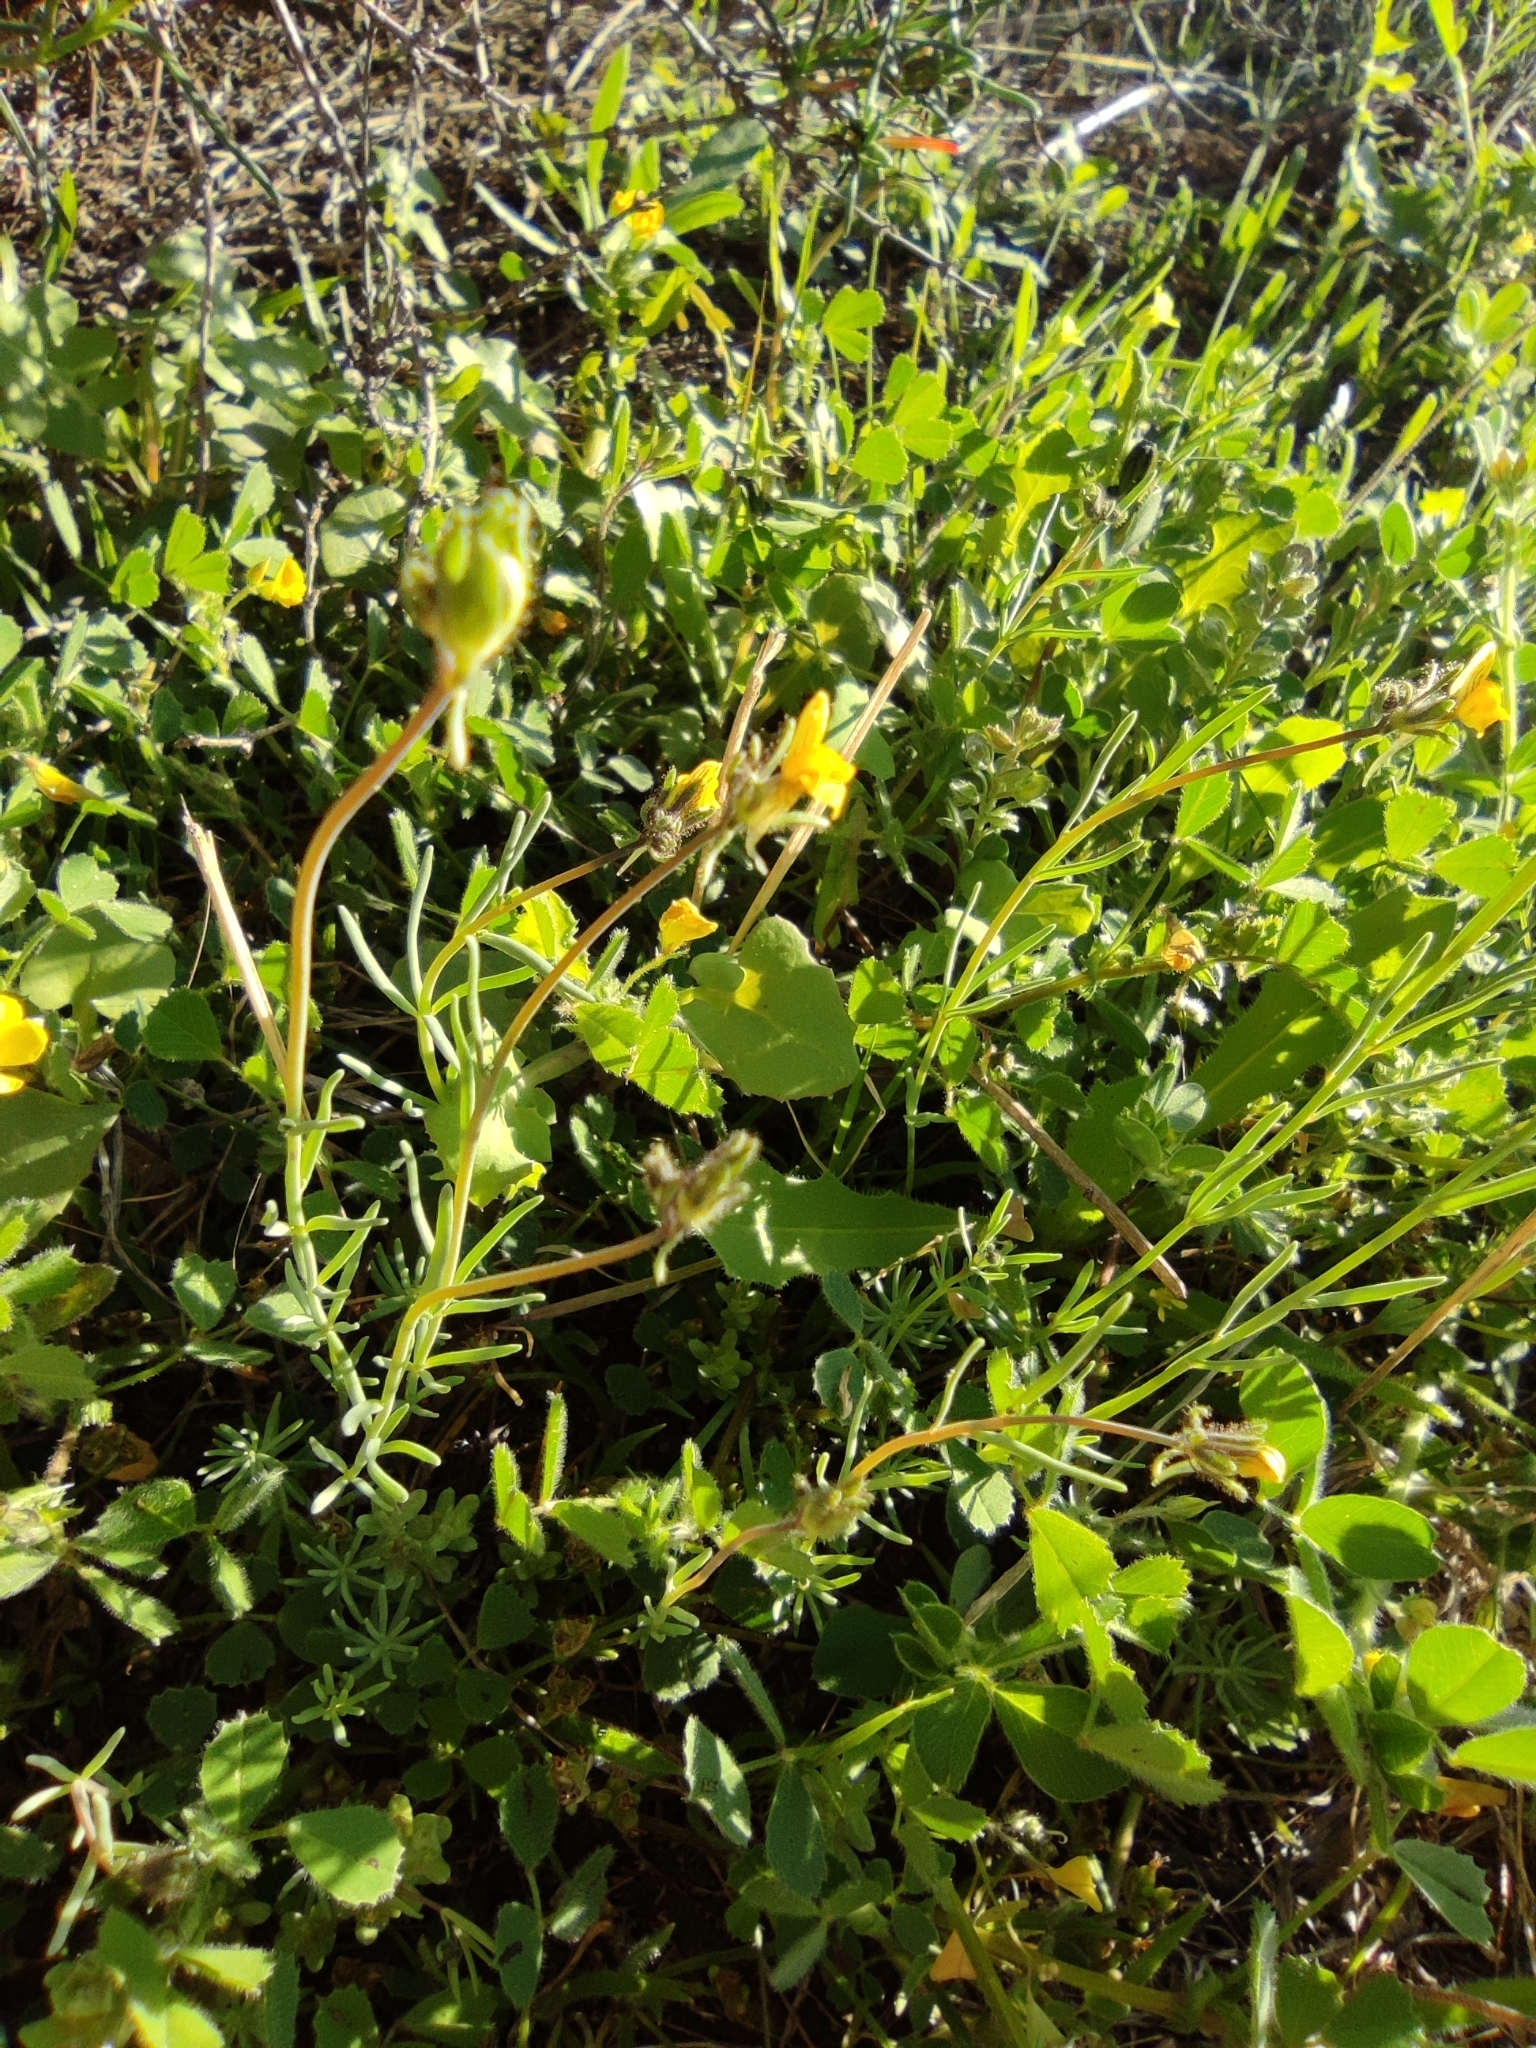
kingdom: Plantae
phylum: Tracheophyta
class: Magnoliopsida
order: Lamiales
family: Plantaginaceae
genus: Linaria
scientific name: Linaria simplex
